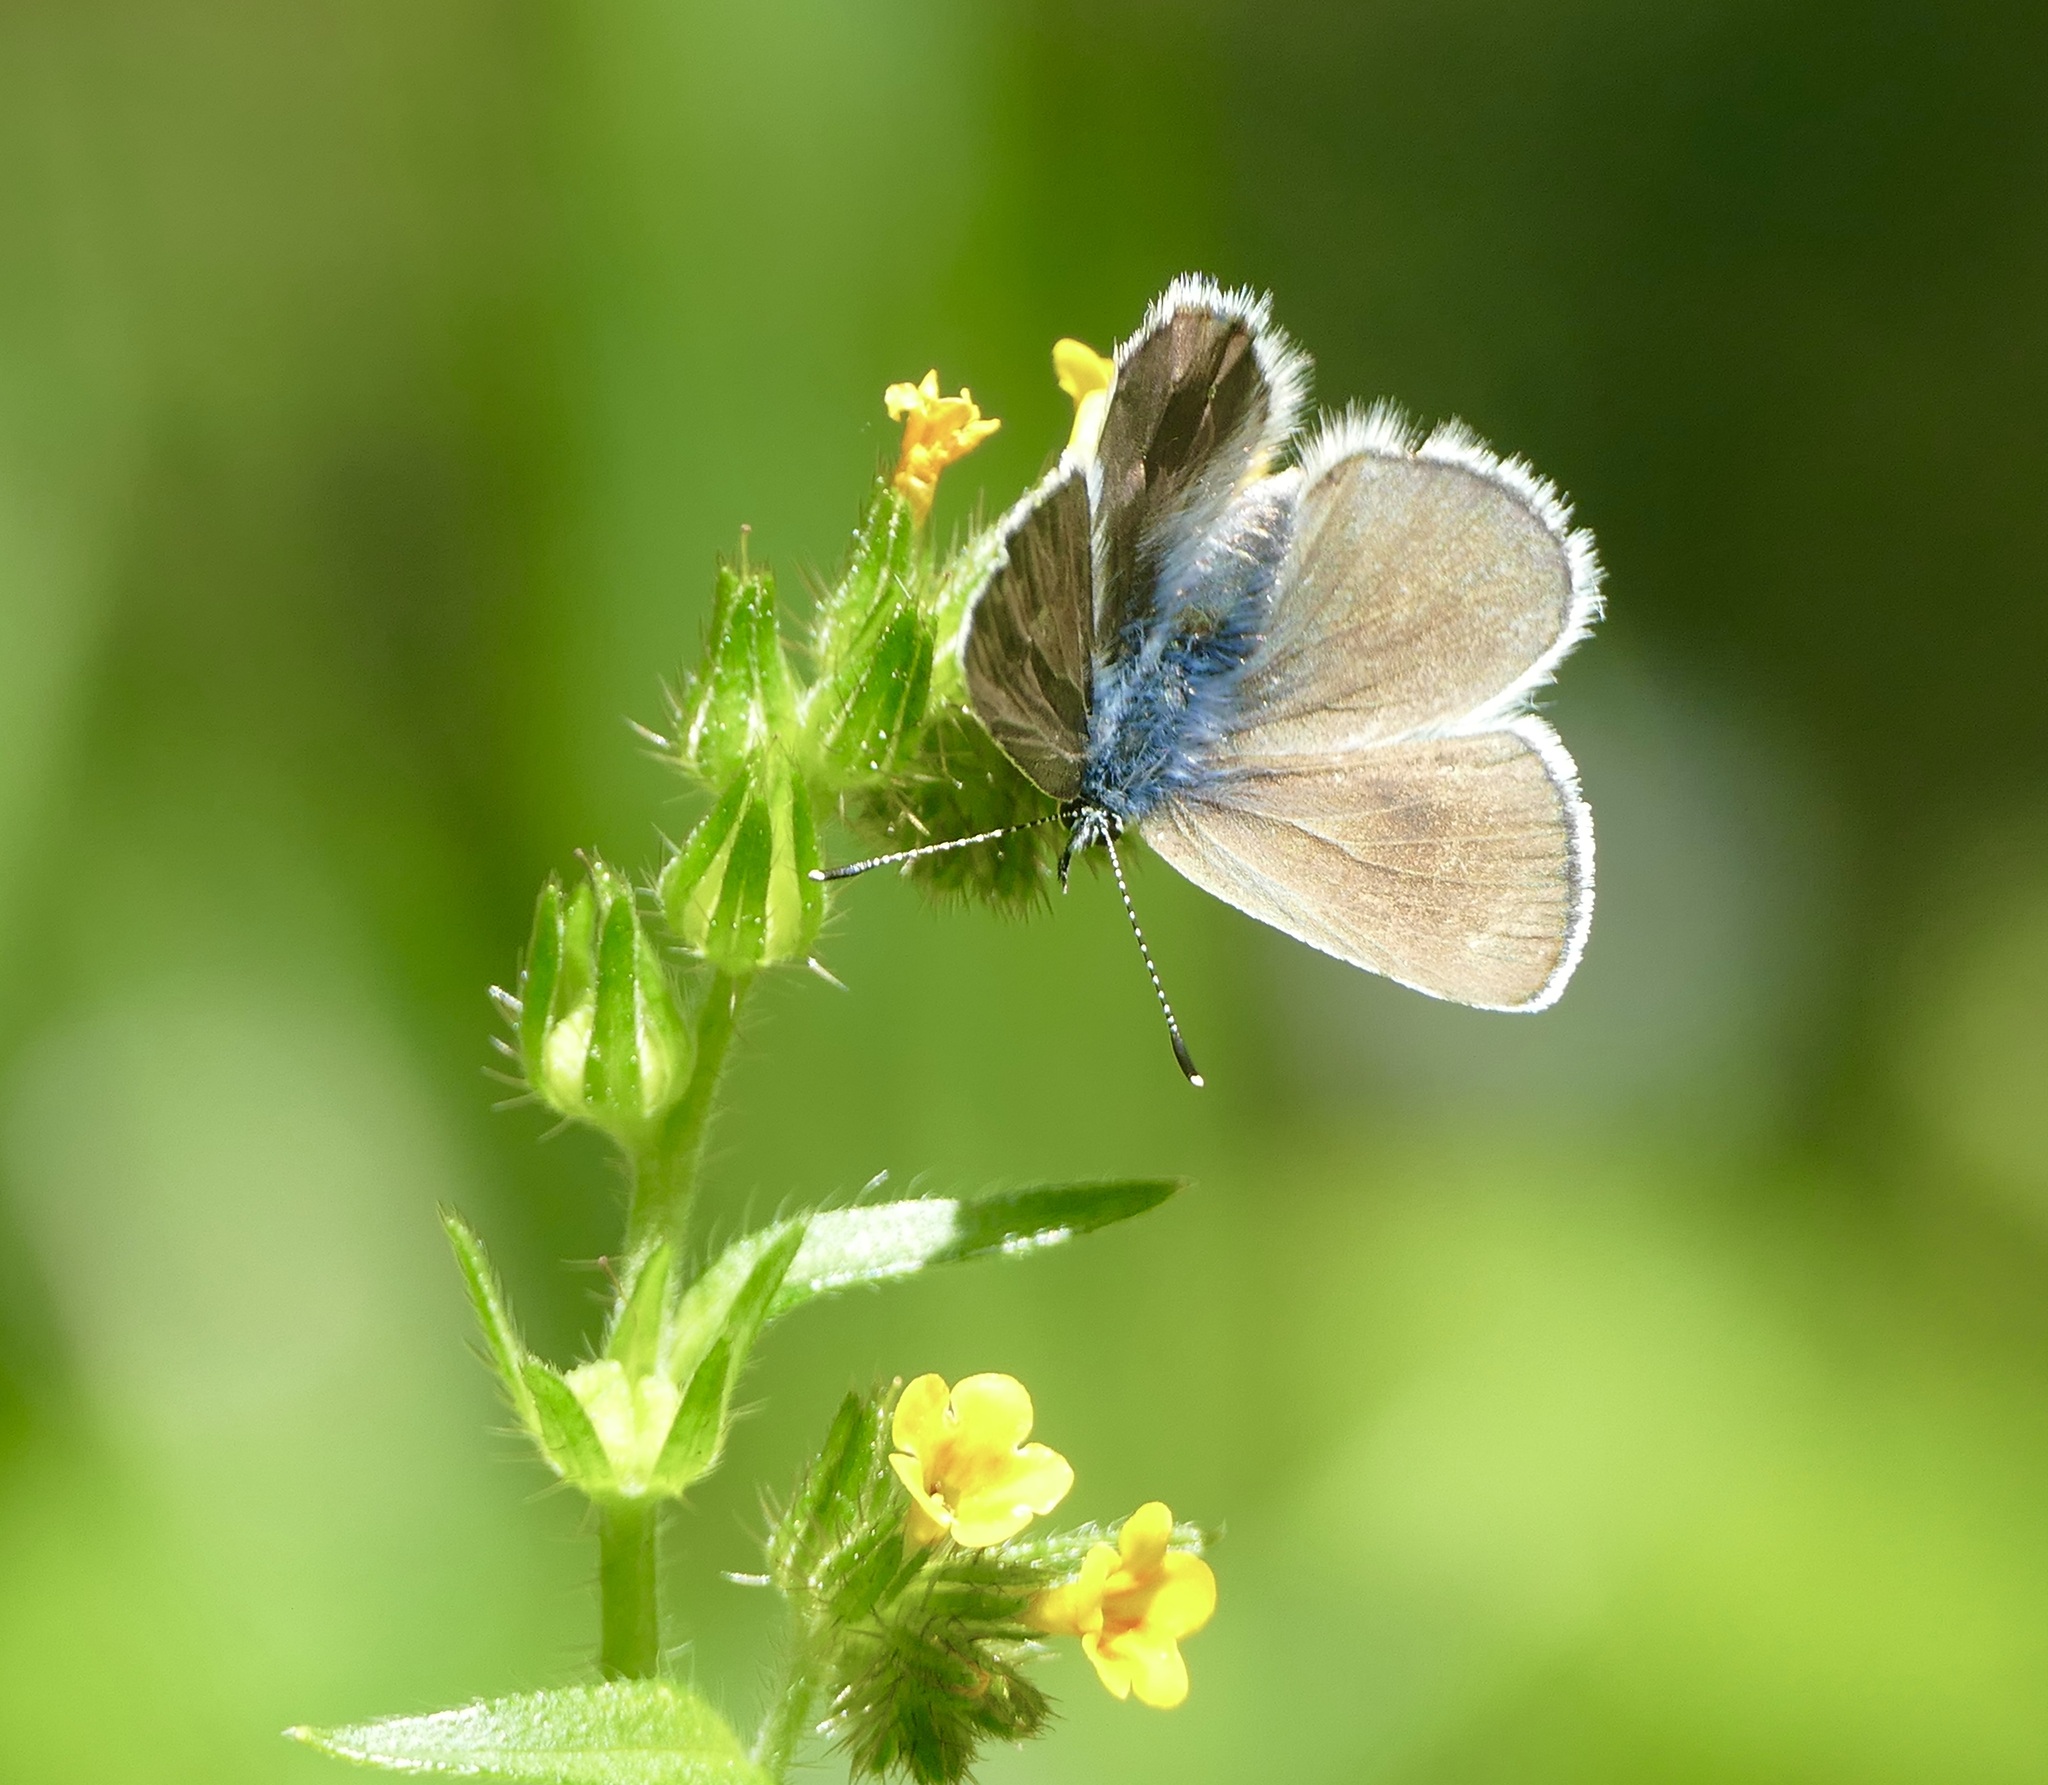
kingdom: Animalia
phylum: Arthropoda
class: Insecta
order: Lepidoptera
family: Lycaenidae
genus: Glaucopsyche
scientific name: Glaucopsyche lygdamus
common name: Silvery blue
